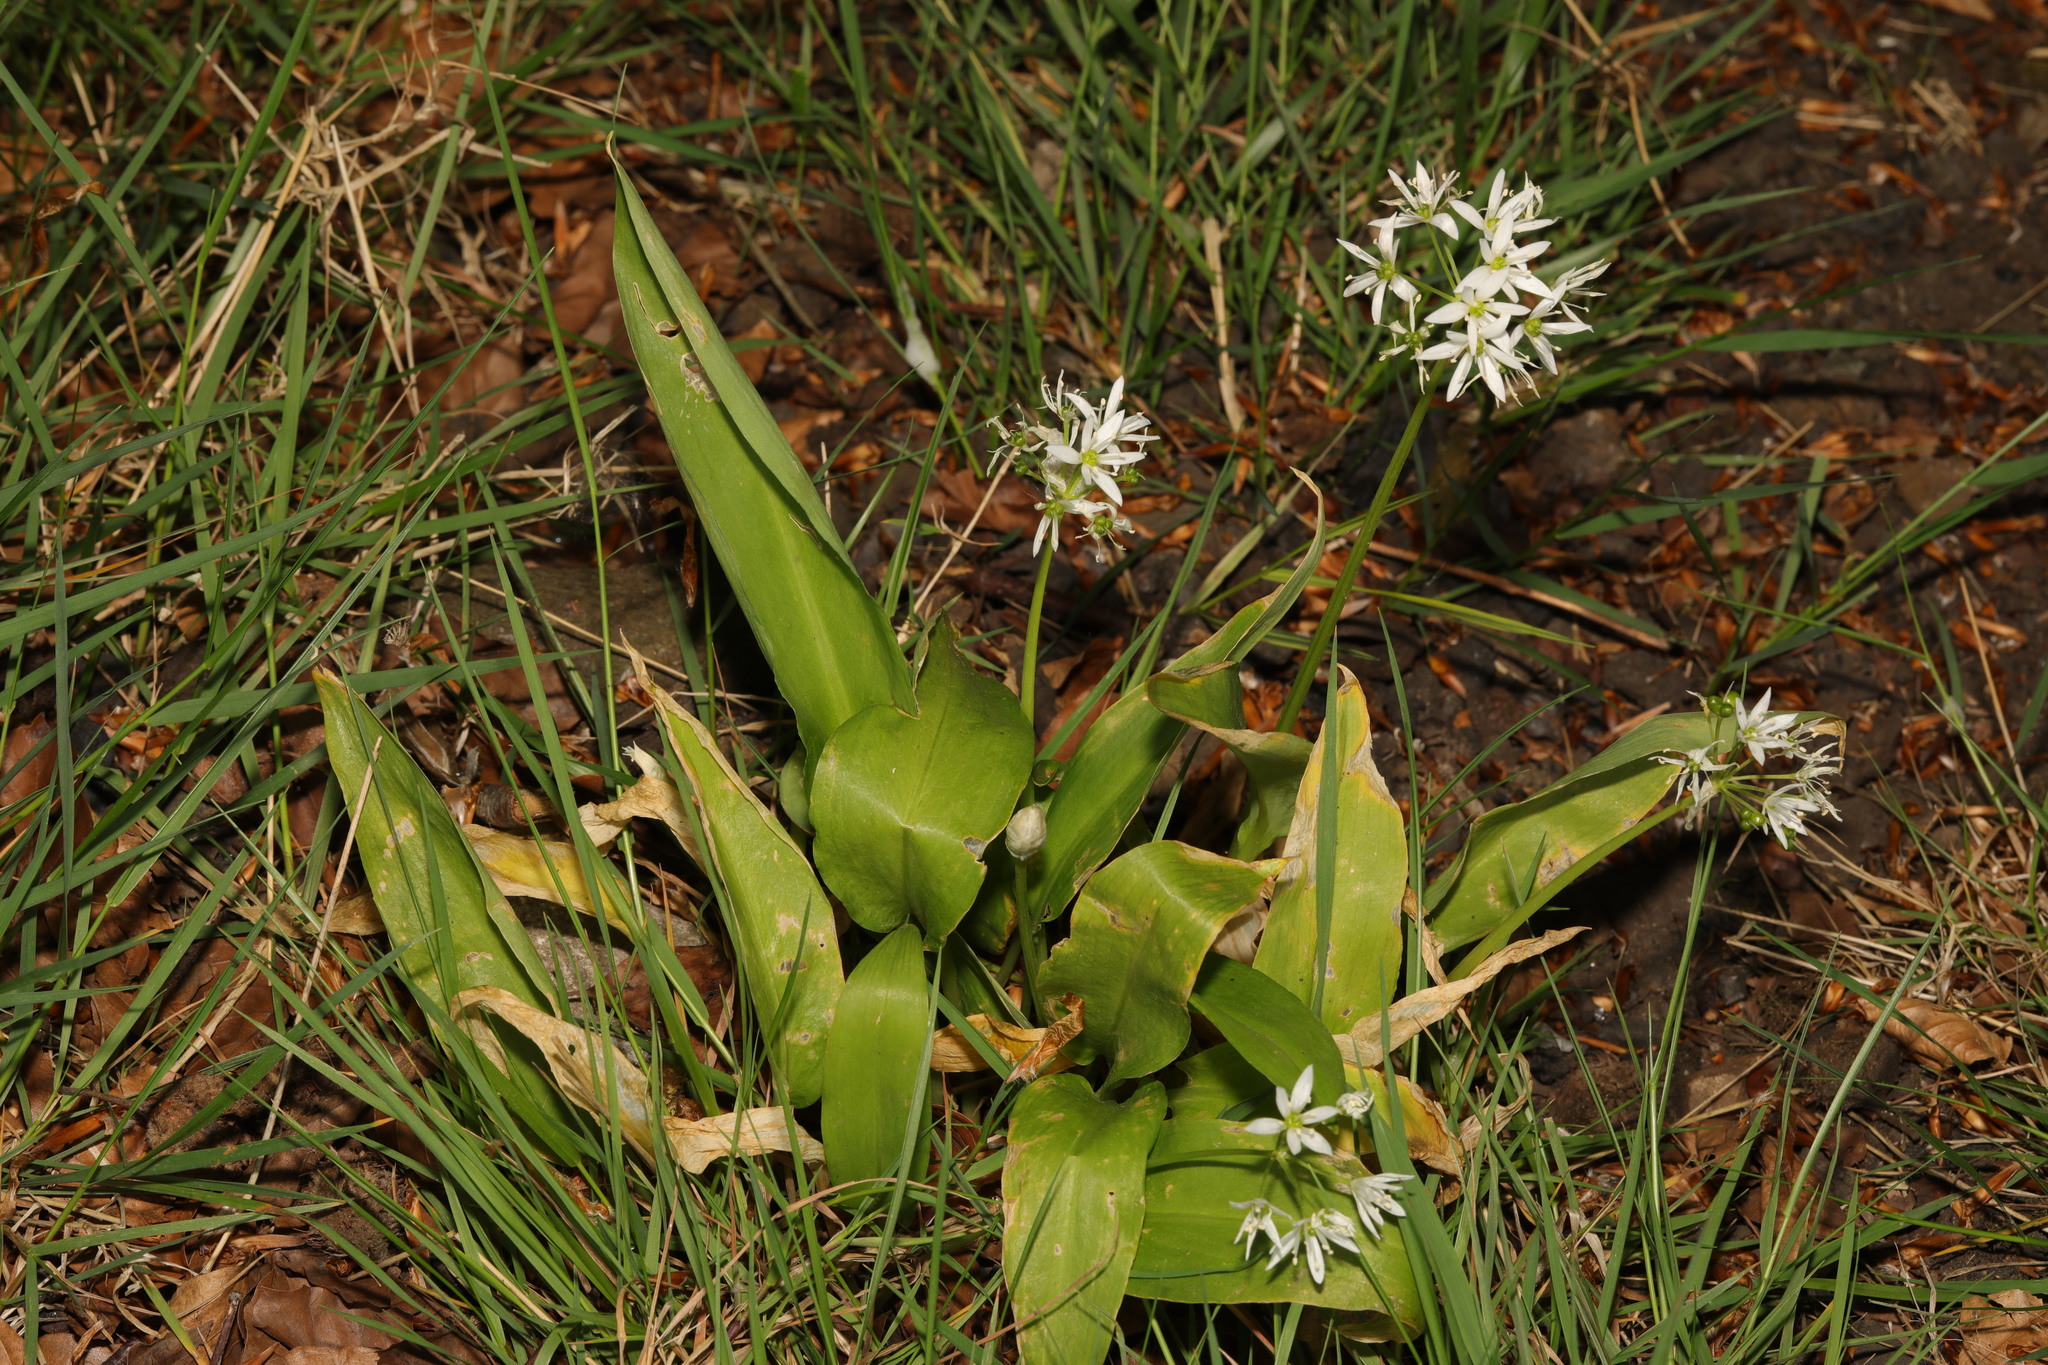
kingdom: Plantae
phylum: Tracheophyta
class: Liliopsida
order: Asparagales
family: Amaryllidaceae
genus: Allium
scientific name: Allium ursinum
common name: Ramsons
